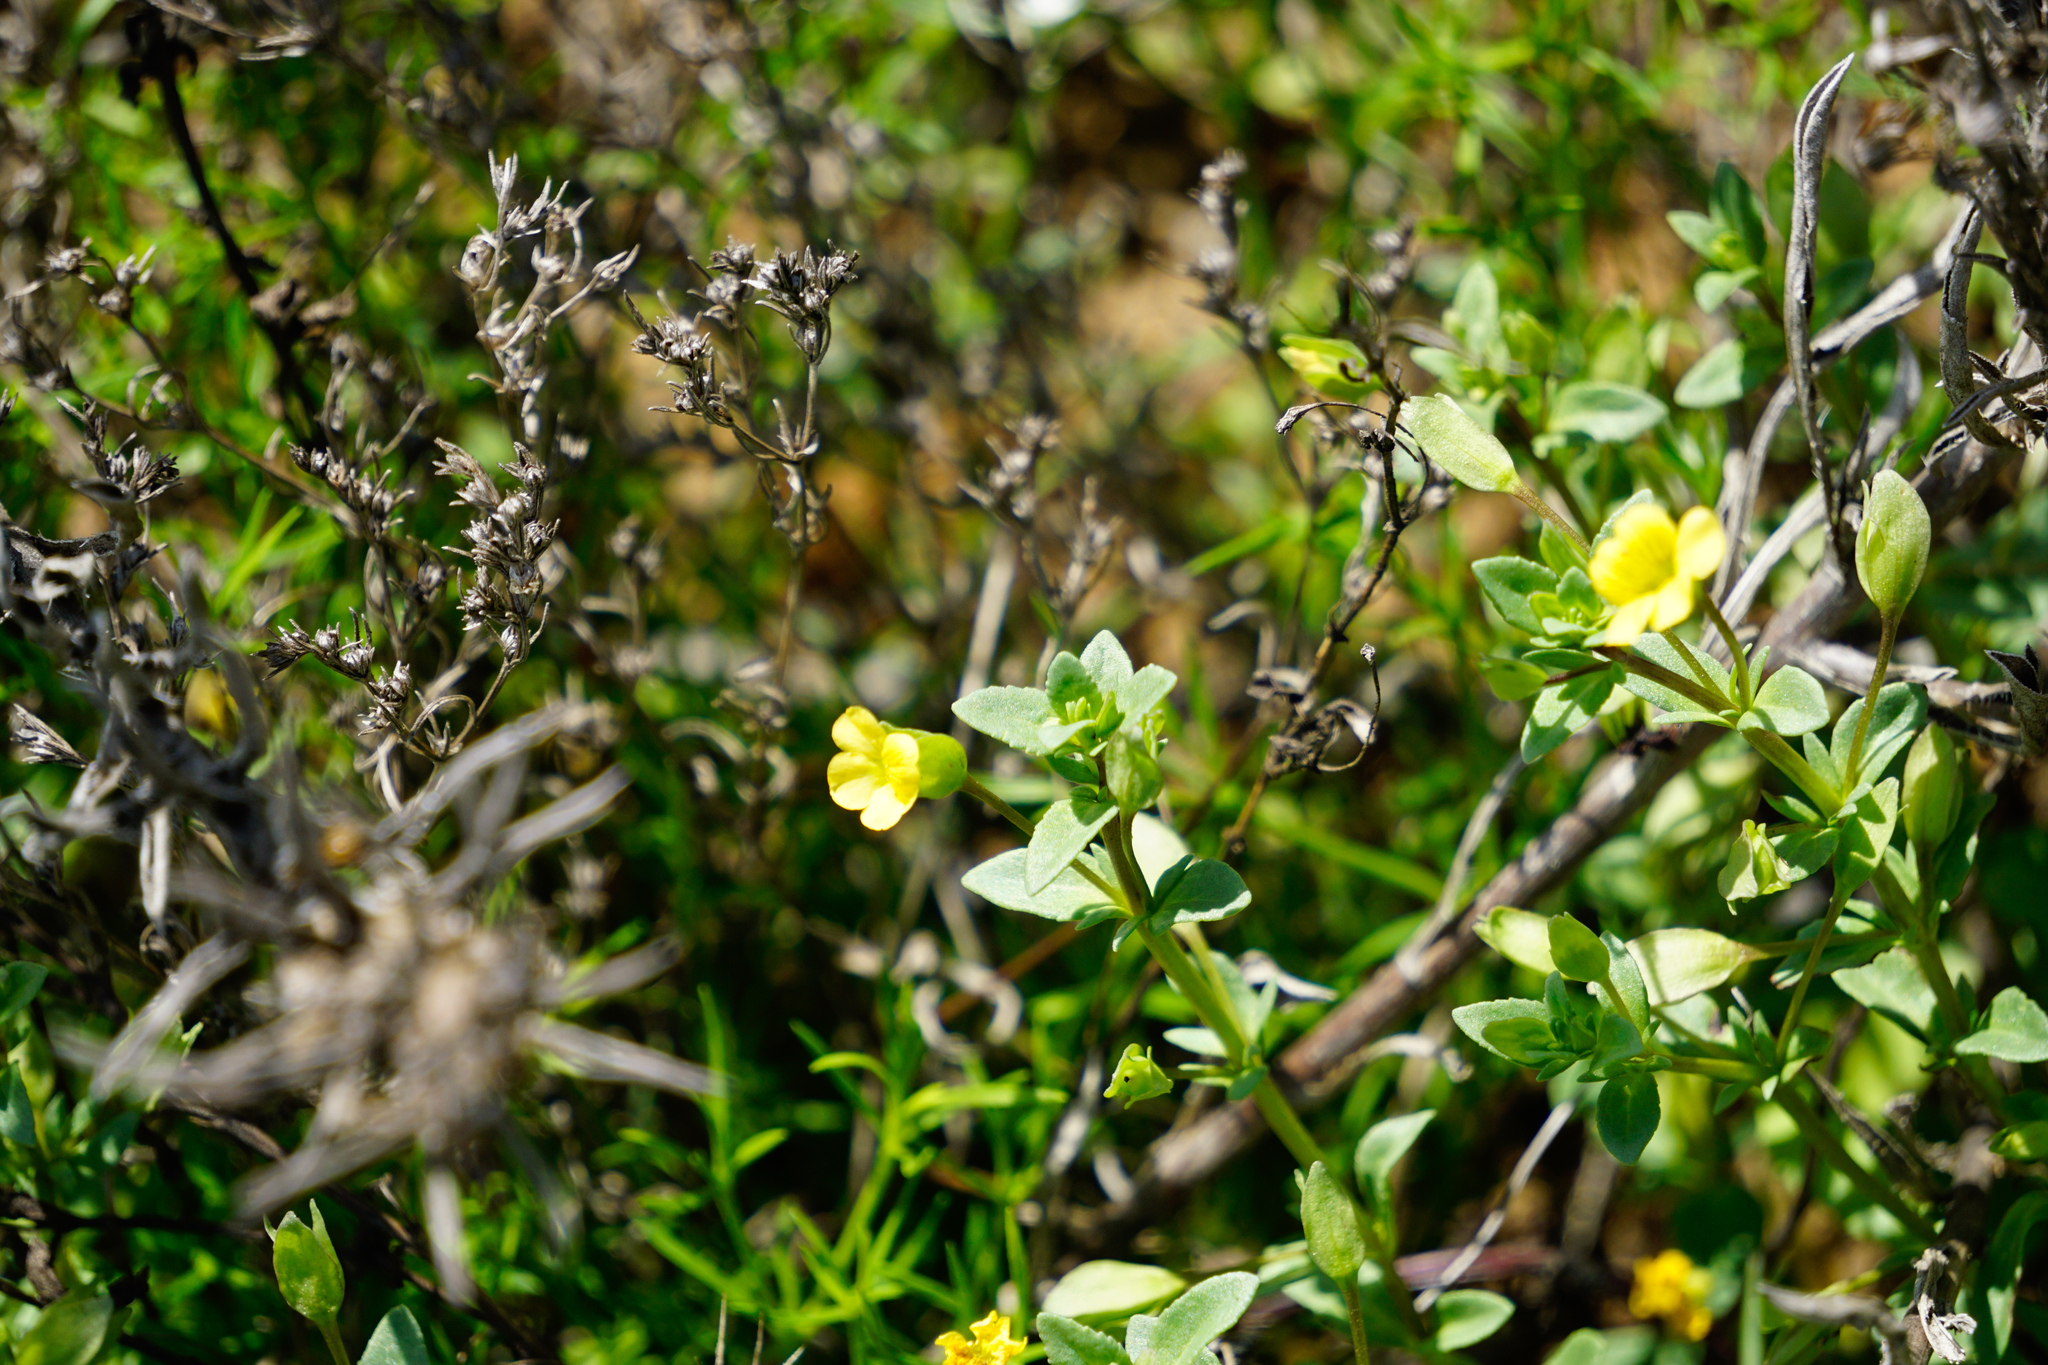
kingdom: Plantae
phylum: Tracheophyta
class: Magnoliopsida
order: Lamiales
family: Plantaginaceae
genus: Mecardonia
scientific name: Mecardonia procumbens
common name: Baby jump-up
